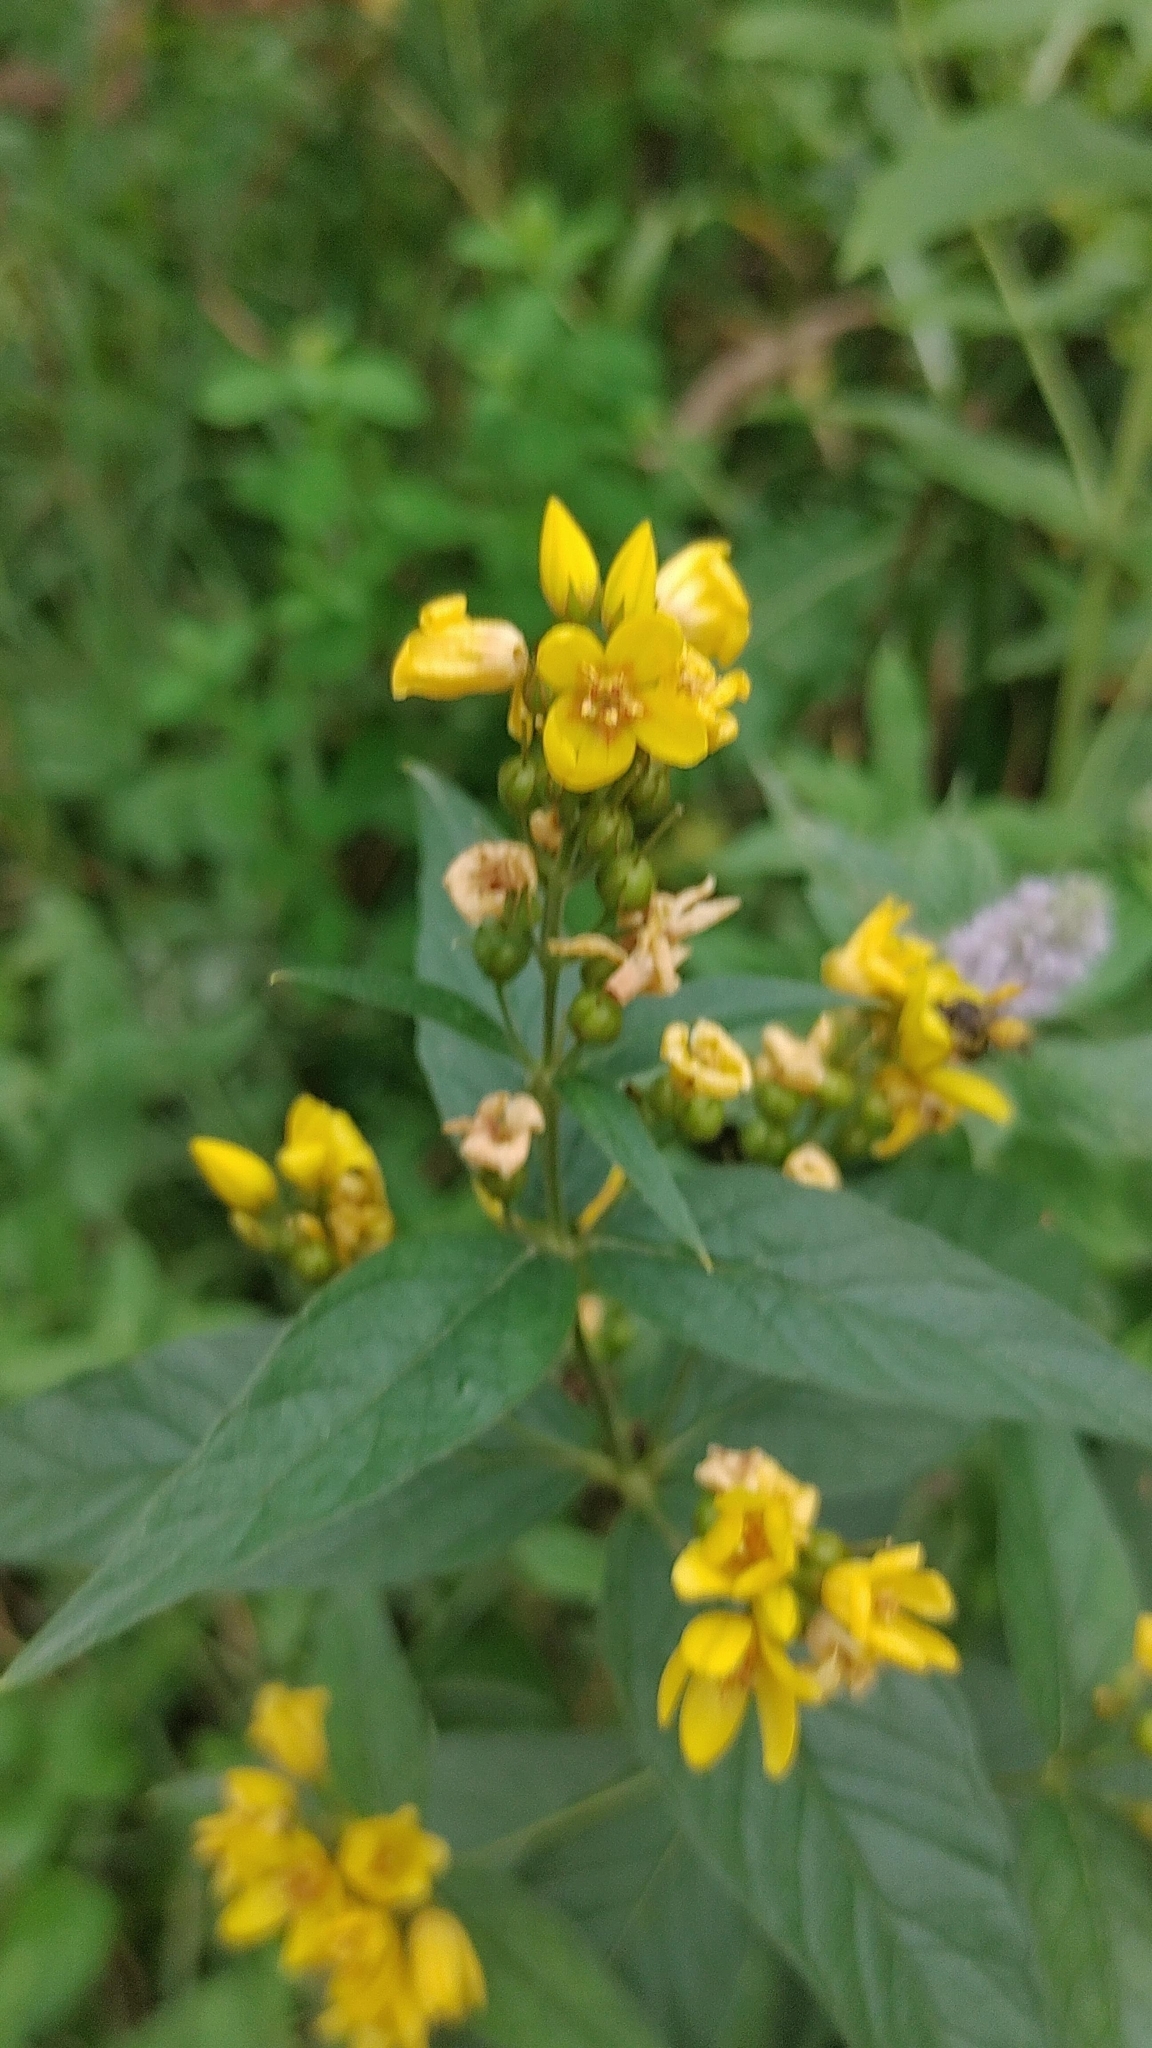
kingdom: Plantae
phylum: Tracheophyta
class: Magnoliopsida
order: Ericales
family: Primulaceae
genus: Lysimachia
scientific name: Lysimachia vulgaris
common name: Yellow loosestrife
